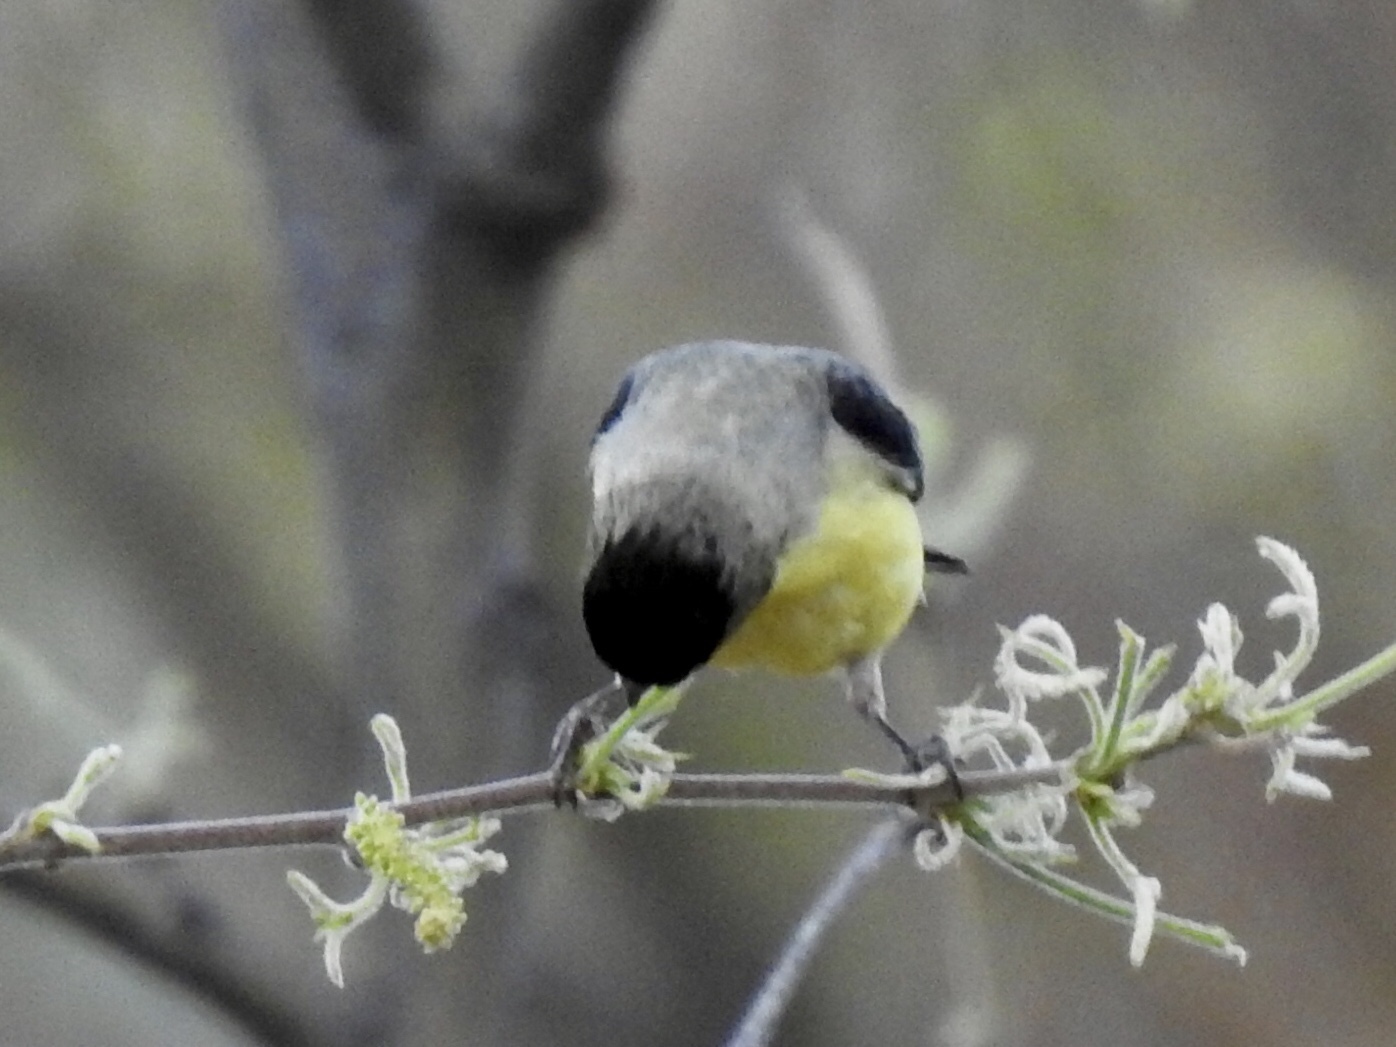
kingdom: Animalia
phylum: Chordata
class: Aves
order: Passeriformes
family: Fringillidae
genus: Spinus
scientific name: Spinus psaltria
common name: Lesser goldfinch
